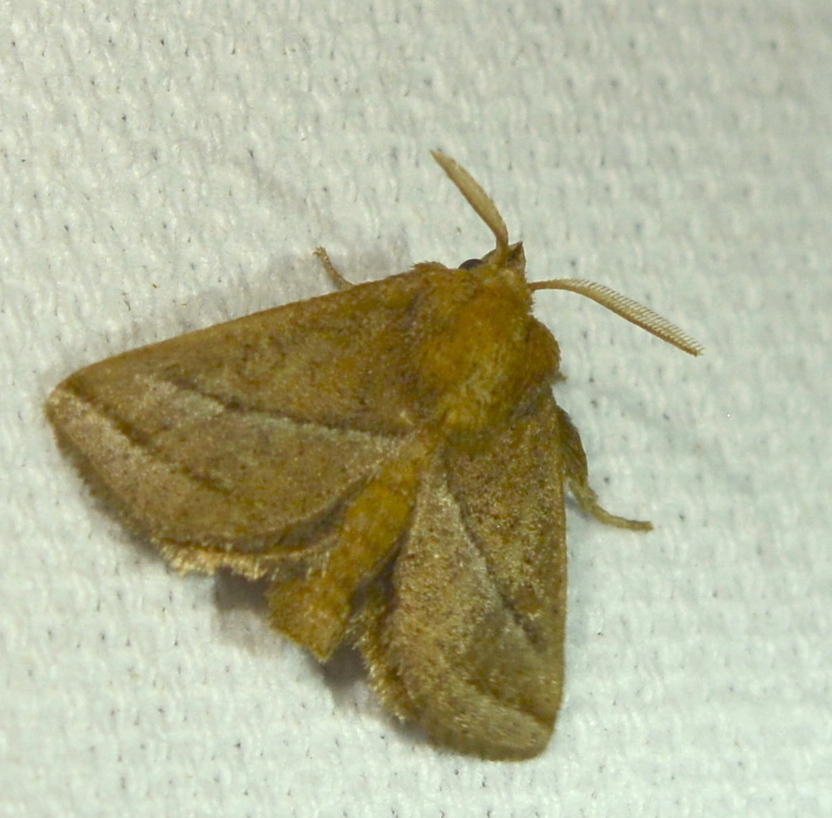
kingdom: Animalia
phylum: Arthropoda
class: Insecta
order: Lepidoptera
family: Limacodidae
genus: Natada
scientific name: Natada nasoni
